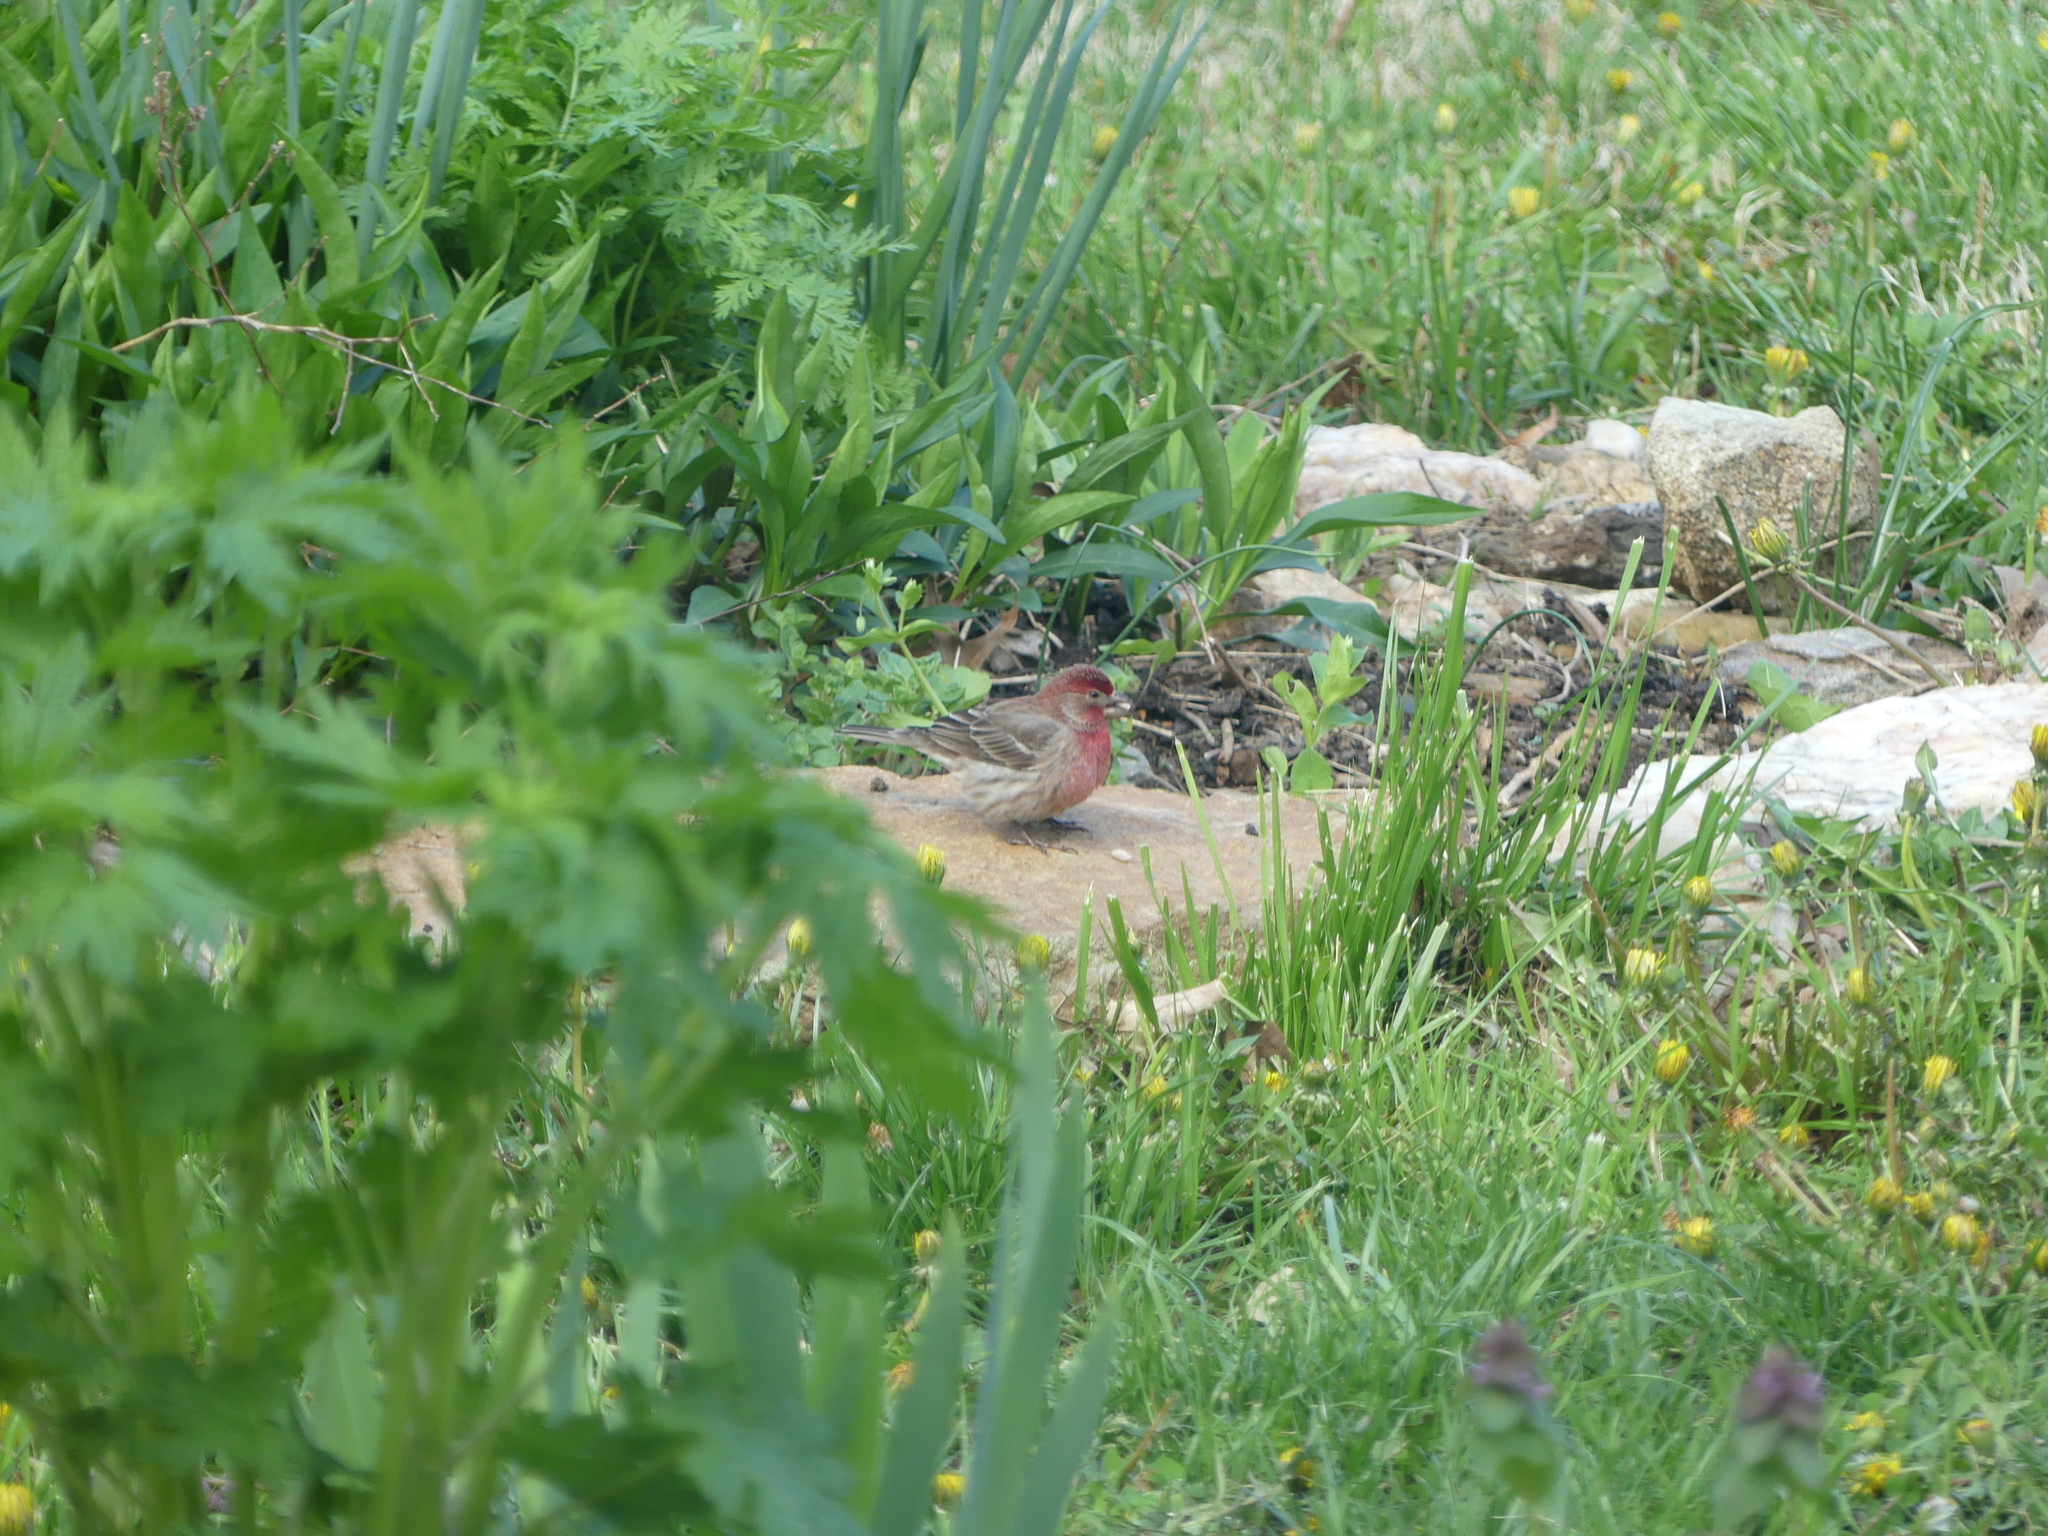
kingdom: Animalia
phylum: Chordata
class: Aves
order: Passeriformes
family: Fringillidae
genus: Haemorhous
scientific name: Haemorhous mexicanus
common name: House finch
